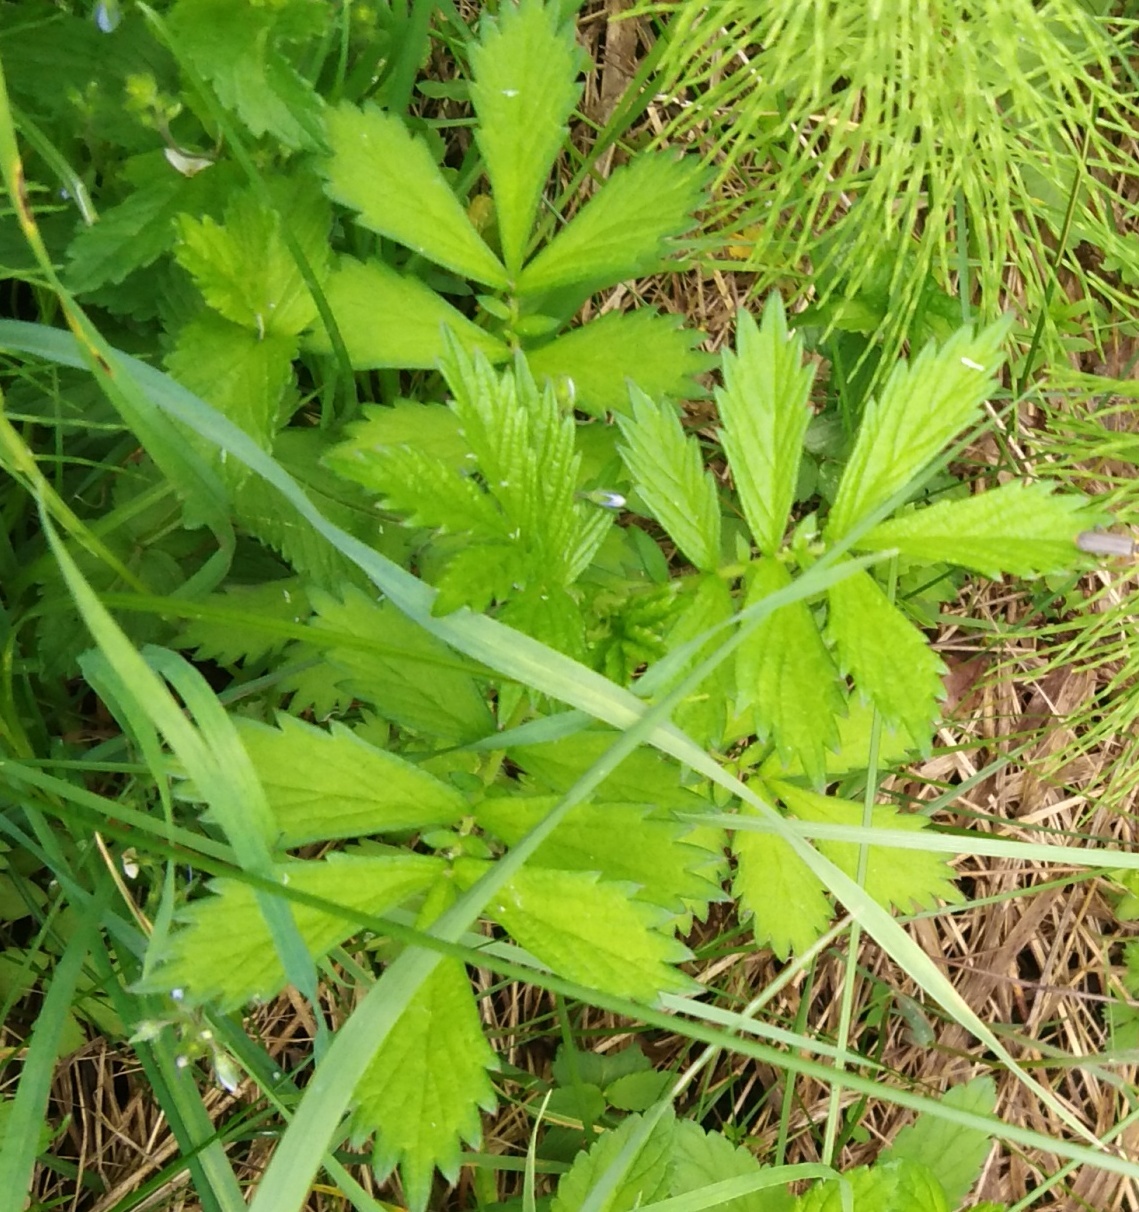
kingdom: Plantae
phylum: Tracheophyta
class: Magnoliopsida
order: Rosales
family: Rosaceae
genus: Agrimonia
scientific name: Agrimonia pilosa
